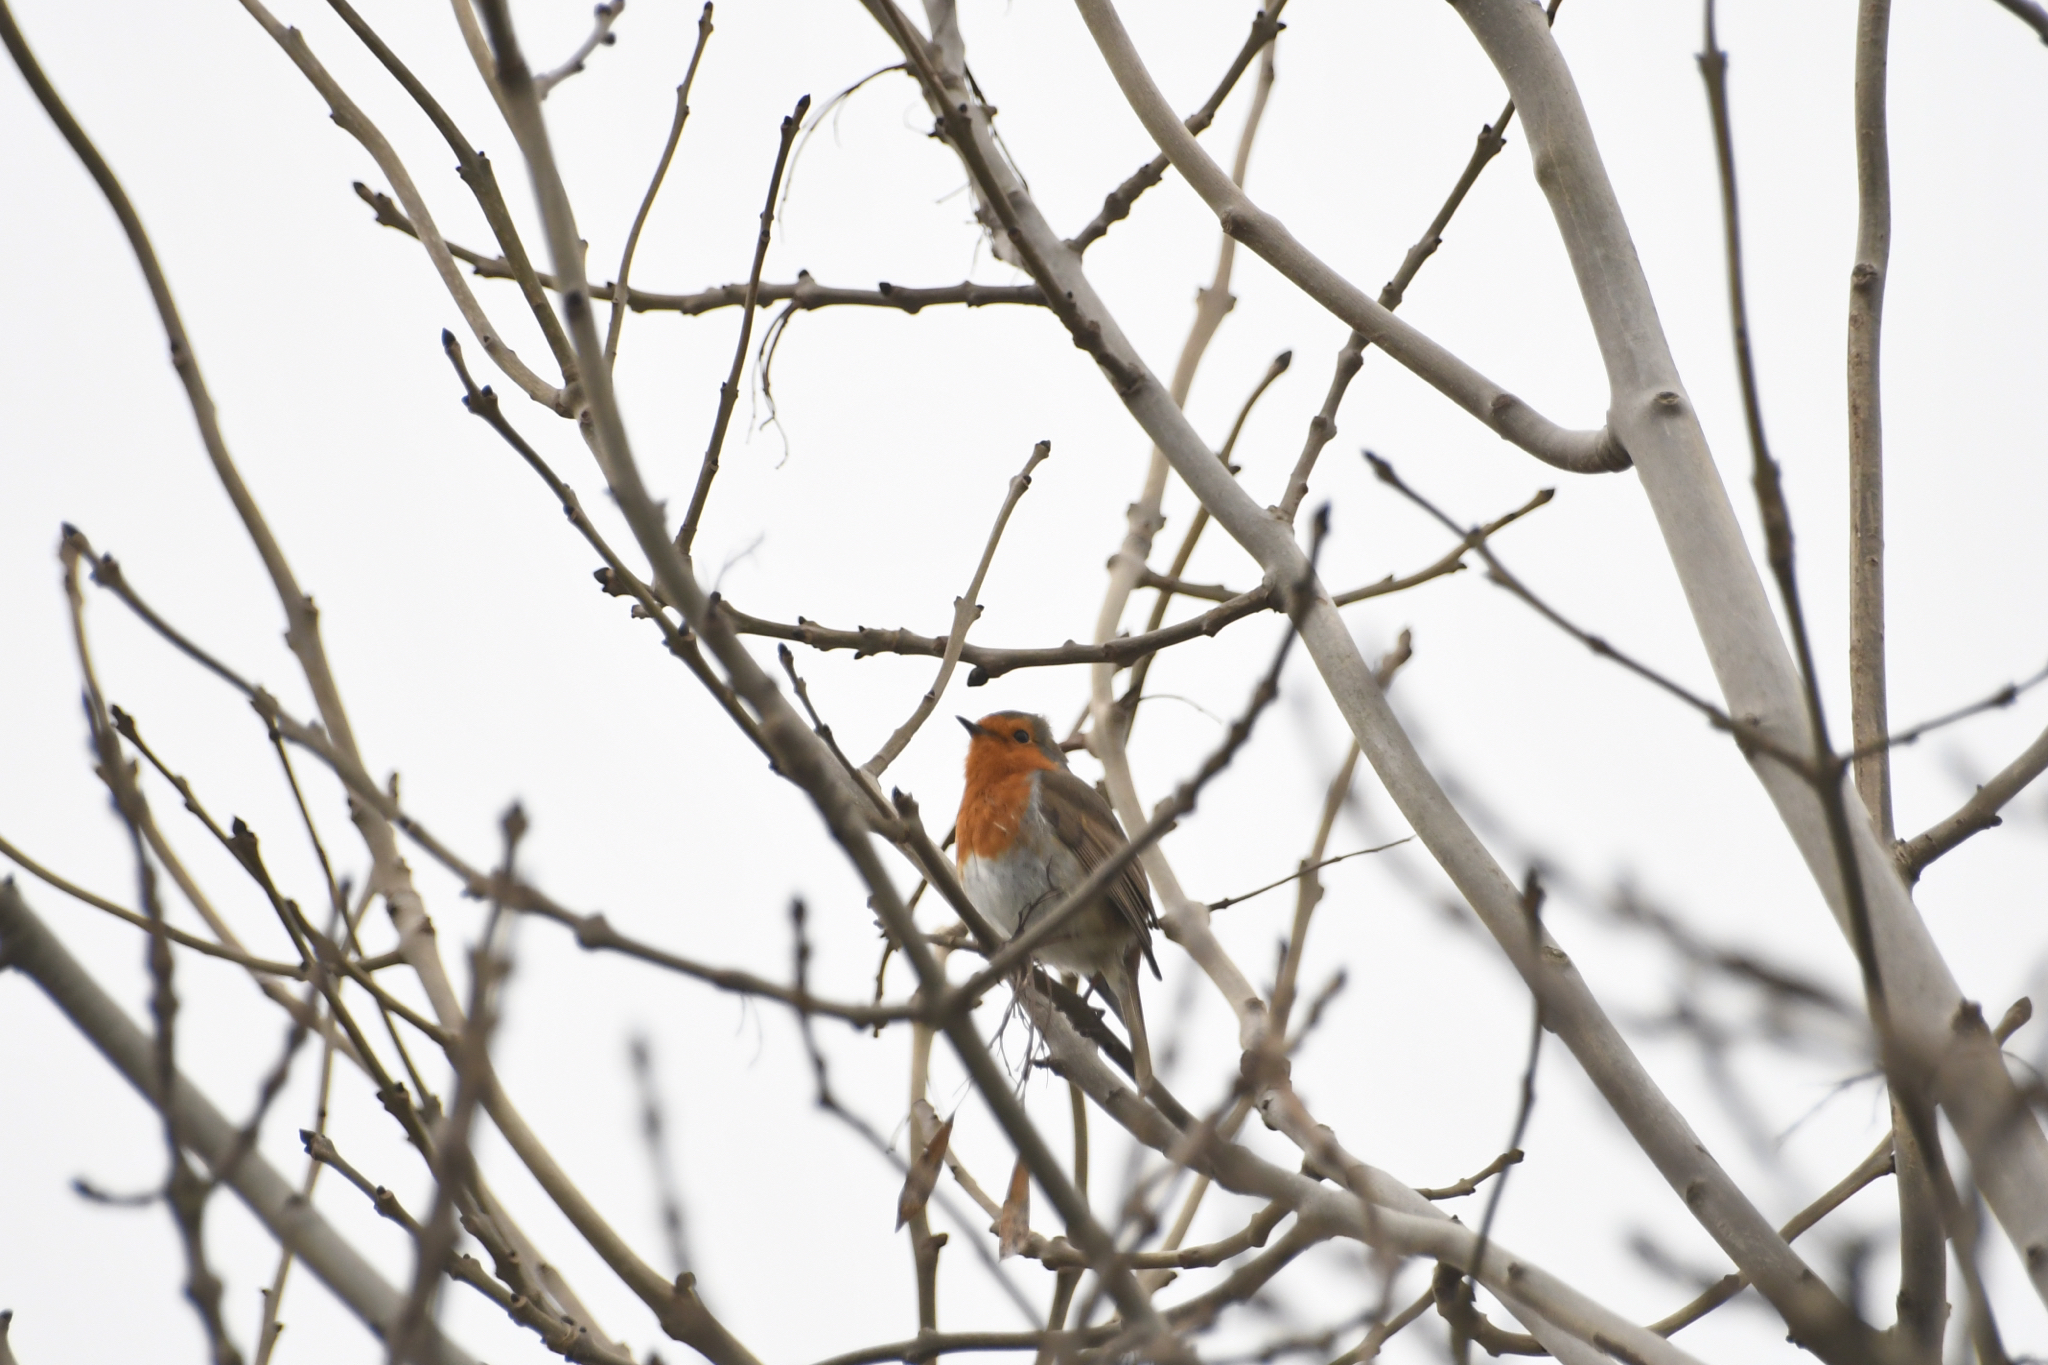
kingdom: Animalia
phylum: Chordata
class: Aves
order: Passeriformes
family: Muscicapidae
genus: Erithacus
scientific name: Erithacus rubecula
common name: European robin
